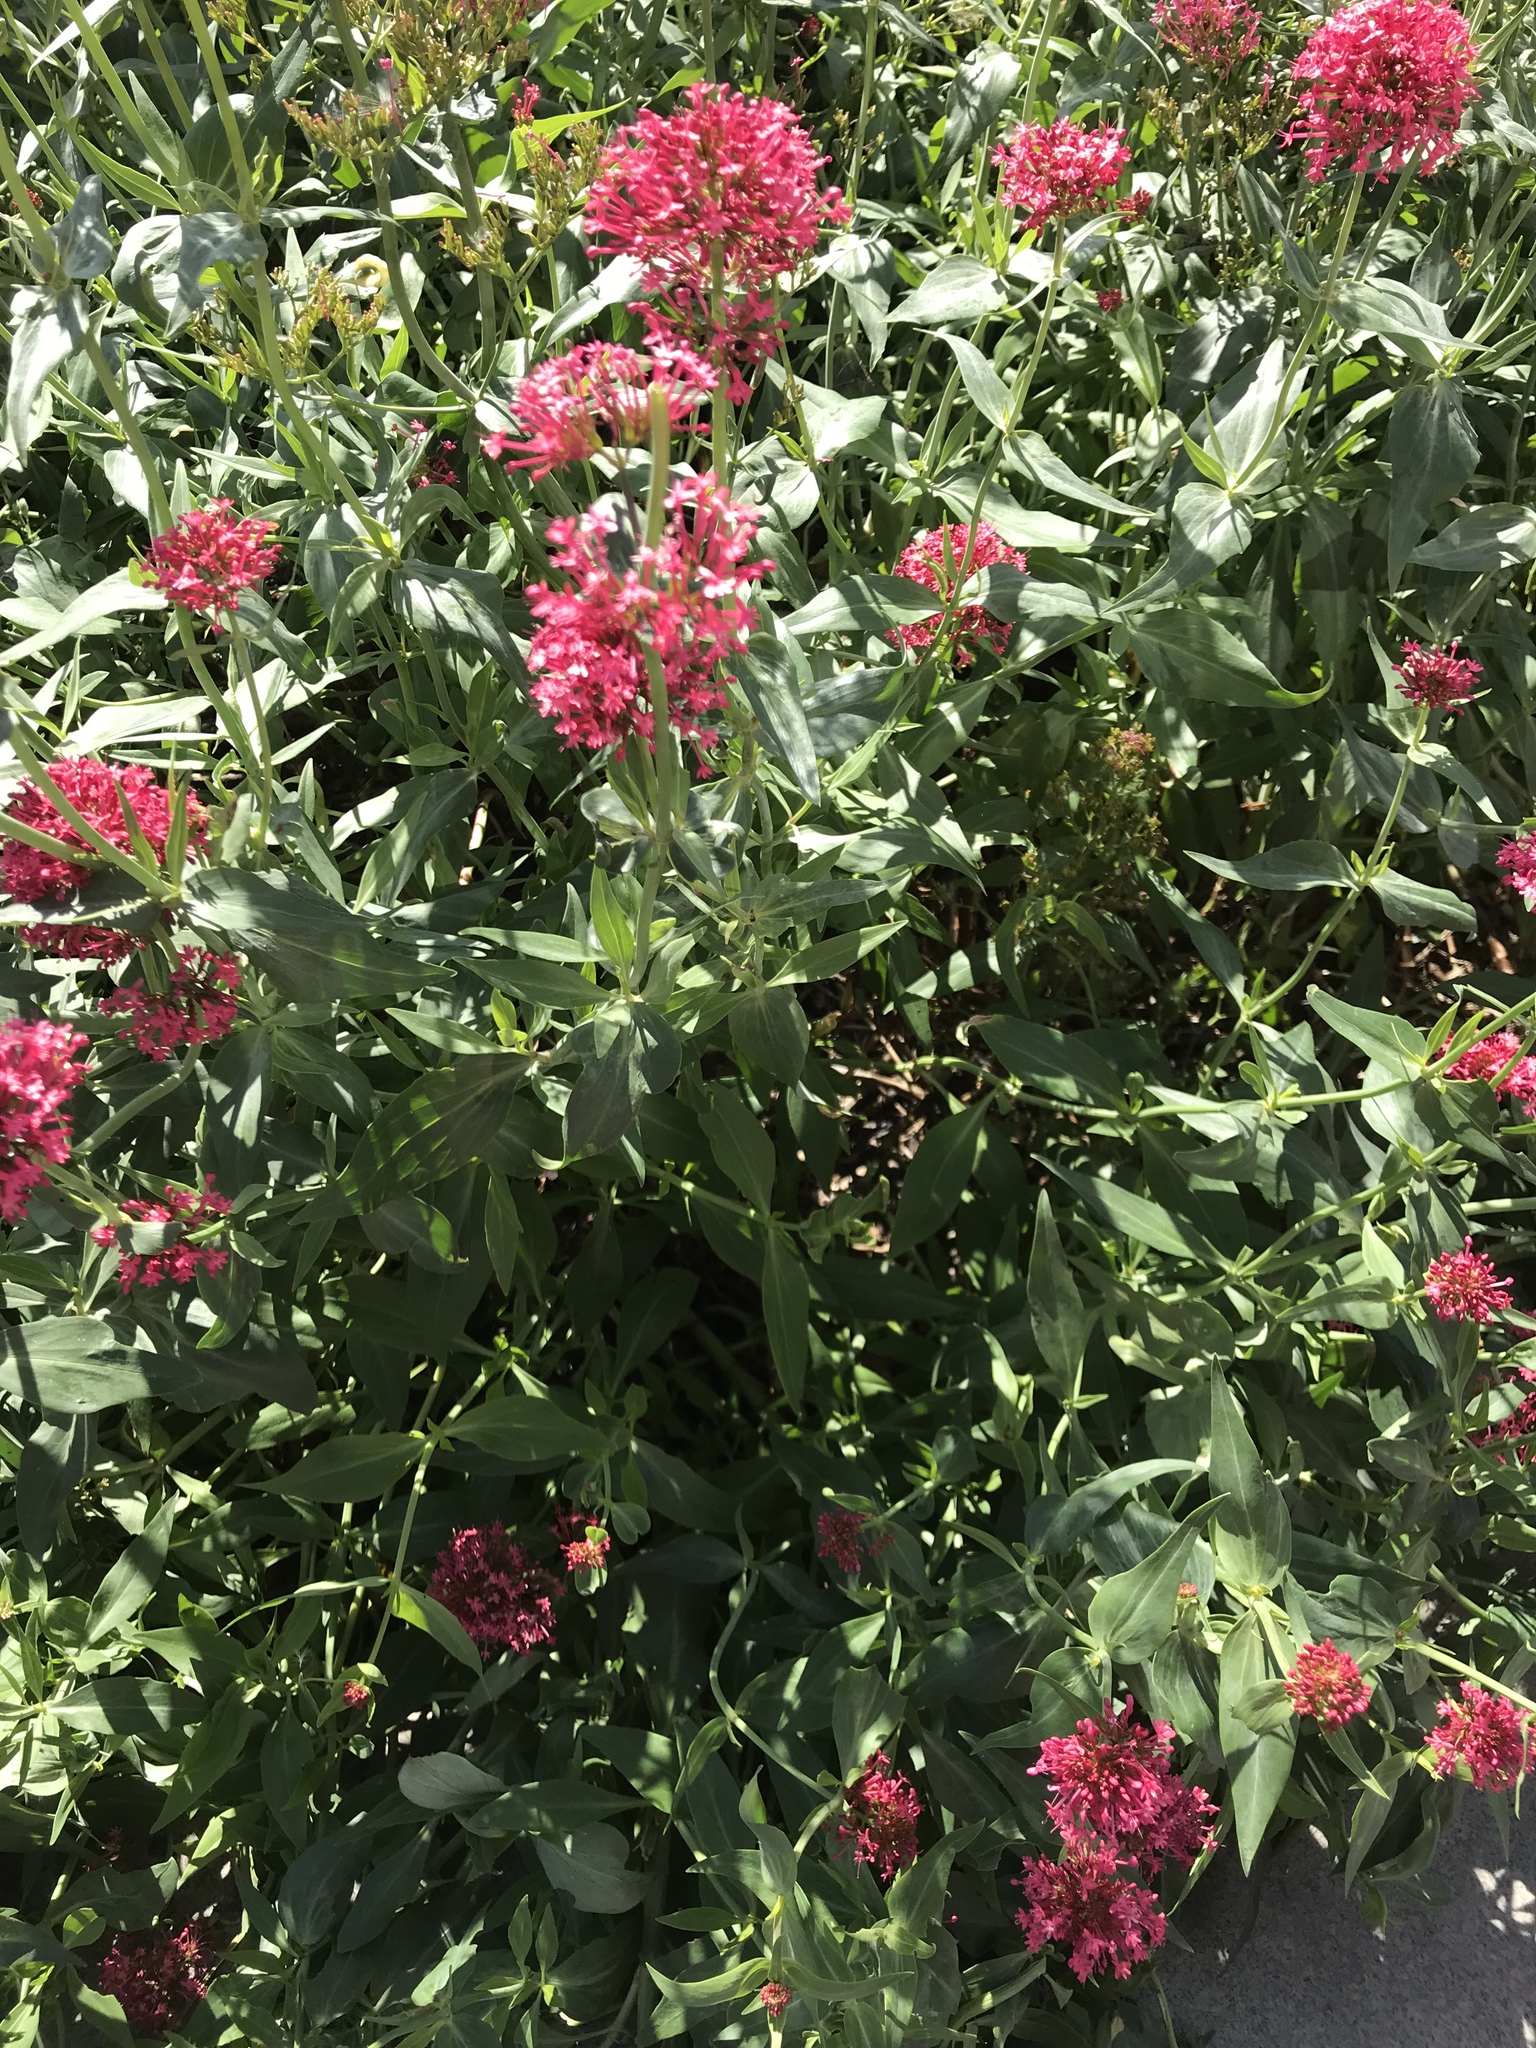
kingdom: Plantae
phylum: Tracheophyta
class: Magnoliopsida
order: Dipsacales
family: Caprifoliaceae
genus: Centranthus
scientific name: Centranthus ruber
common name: Red valerian
